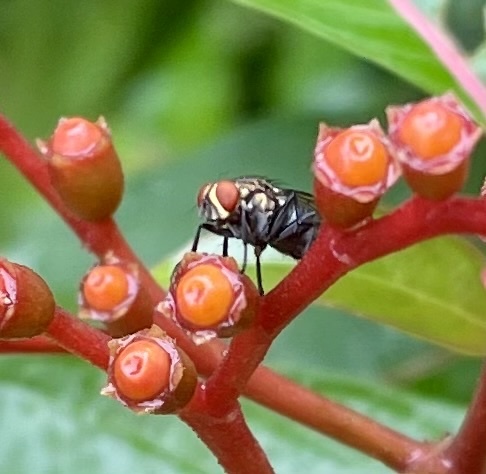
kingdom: Plantae
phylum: Tracheophyta
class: Magnoliopsida
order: Gentianales
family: Rubiaceae
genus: Hamelia
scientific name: Hamelia patens
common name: Redhead
